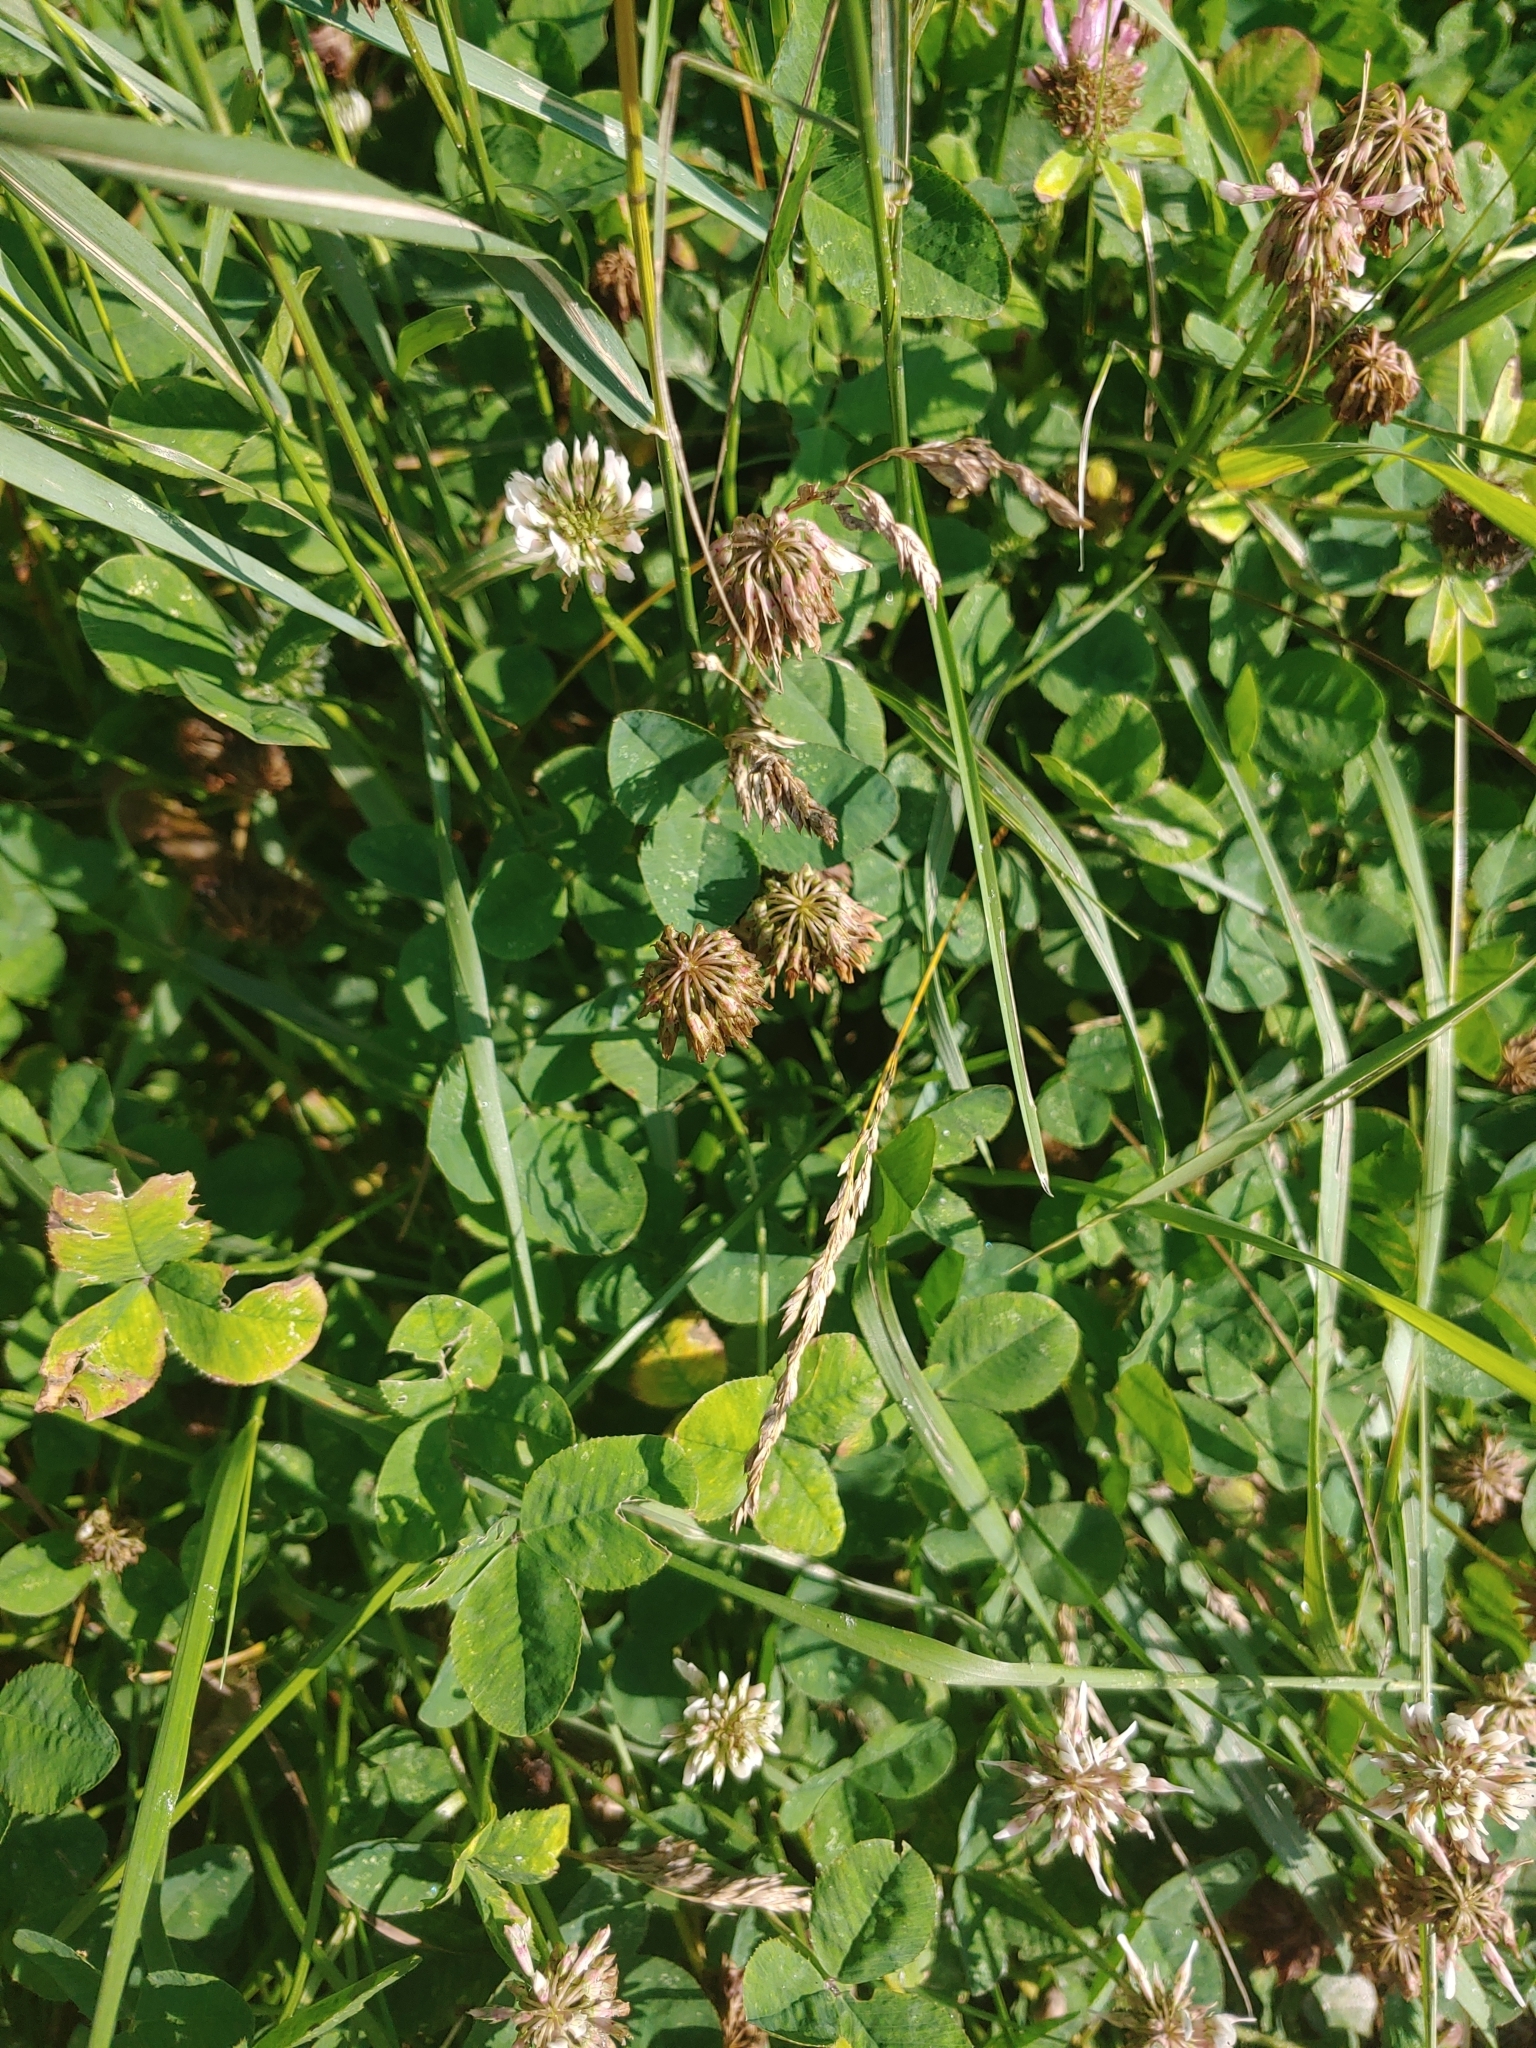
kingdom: Plantae
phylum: Tracheophyta
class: Magnoliopsida
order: Fabales
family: Fabaceae
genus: Trifolium
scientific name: Trifolium repens
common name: White clover
